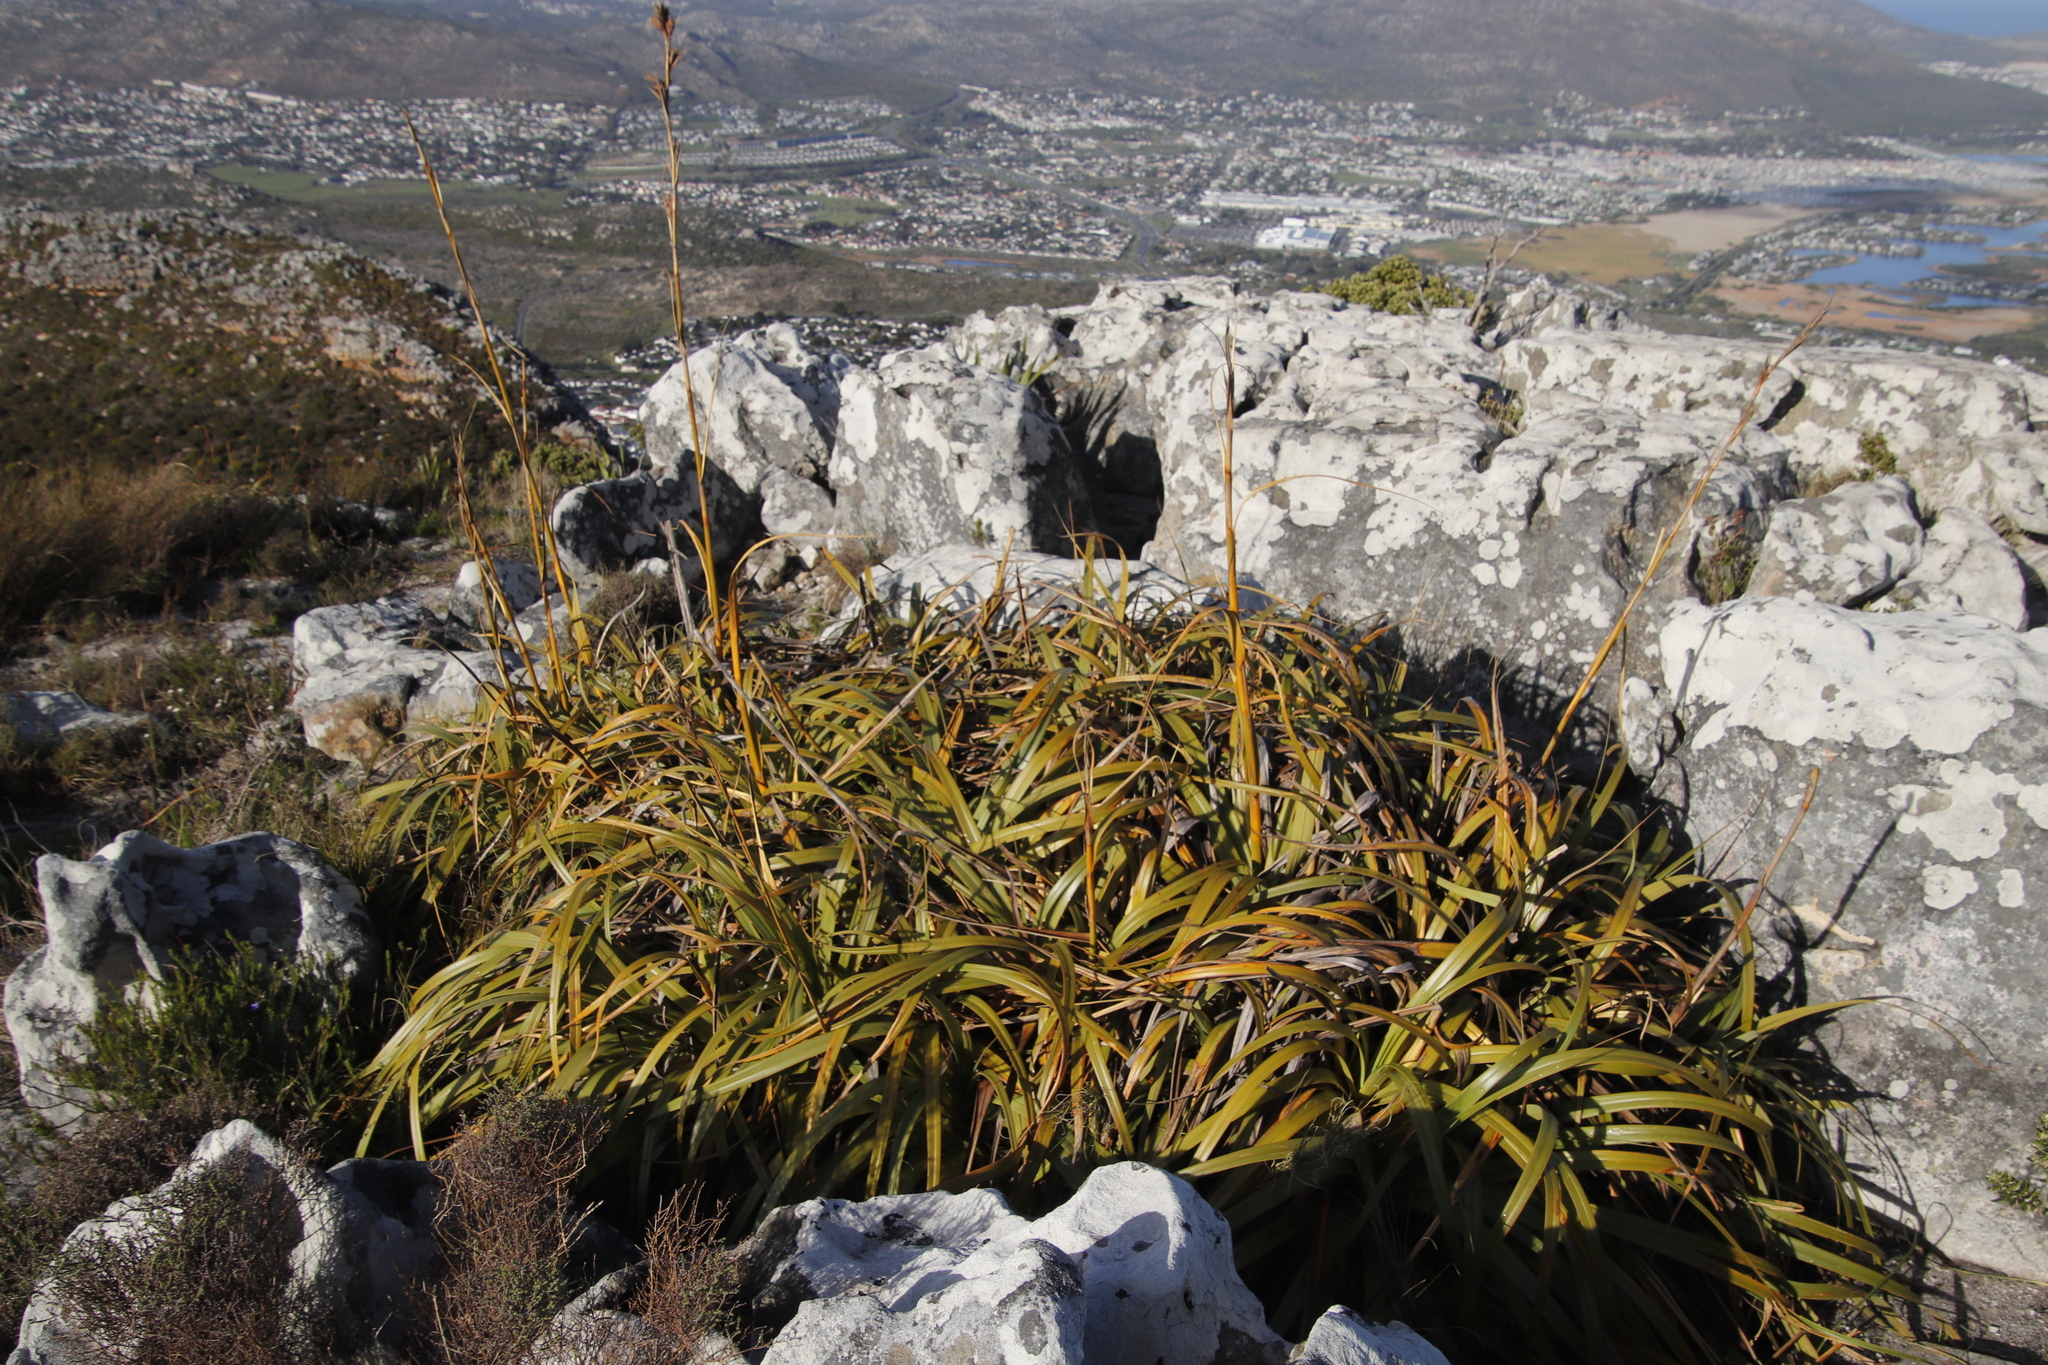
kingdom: Plantae
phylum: Tracheophyta
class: Liliopsida
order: Poales
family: Cyperaceae
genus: Tetraria
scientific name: Tetraria thermalis
